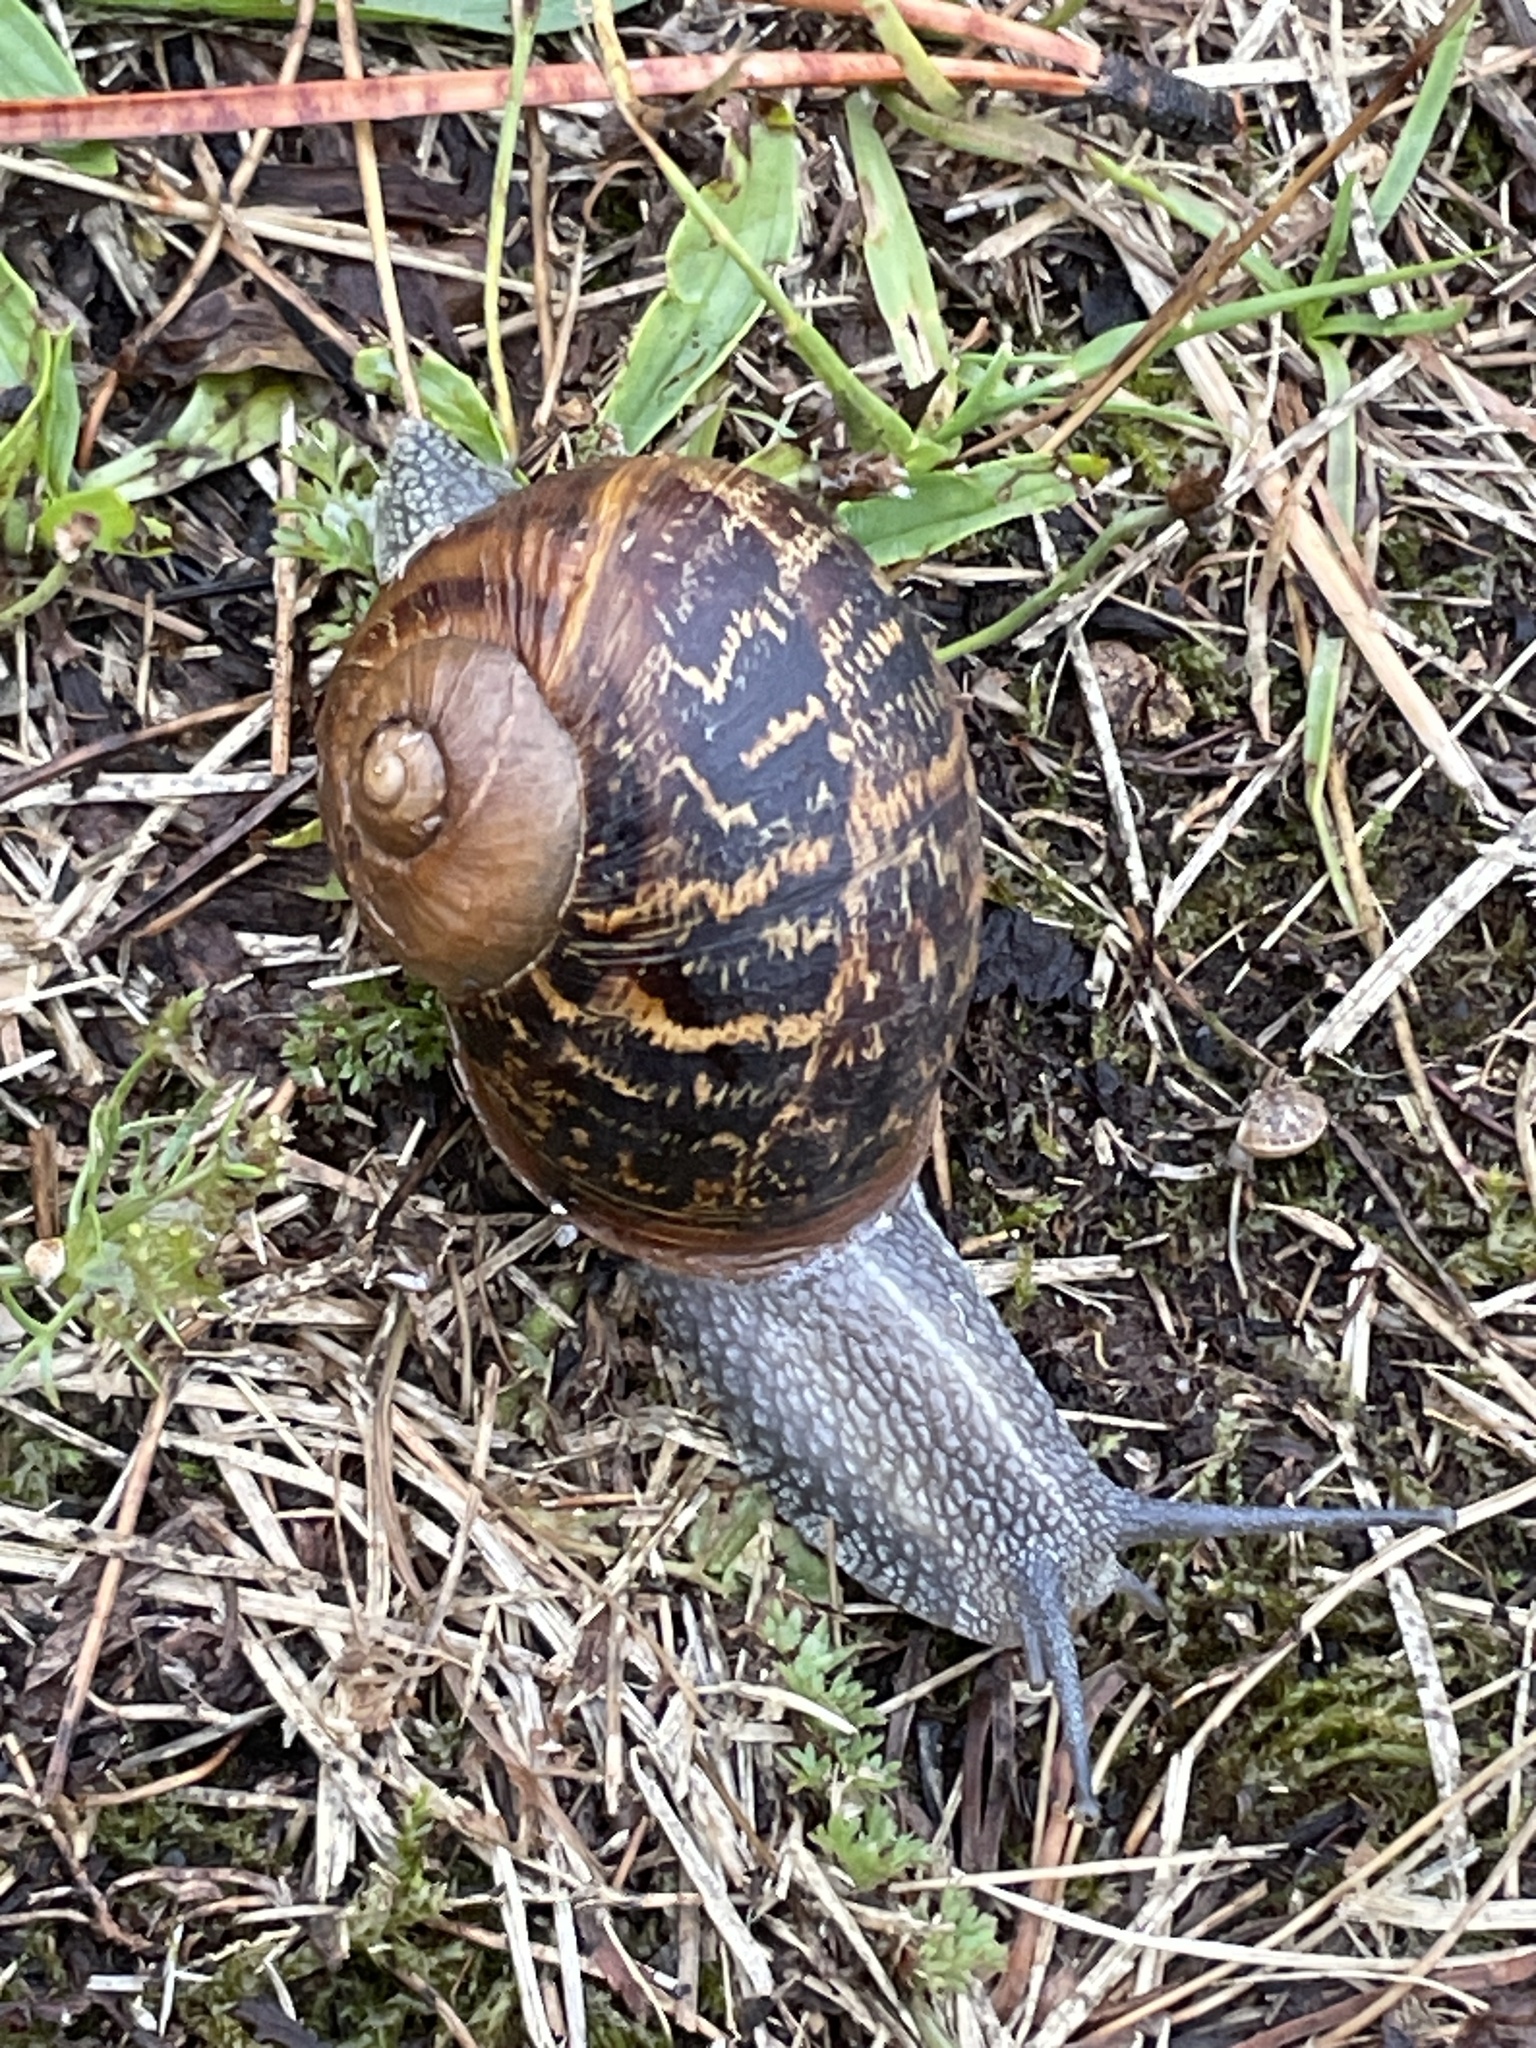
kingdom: Animalia
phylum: Mollusca
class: Gastropoda
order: Stylommatophora
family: Helicidae
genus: Cornu
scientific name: Cornu aspersum
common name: Brown garden snail
